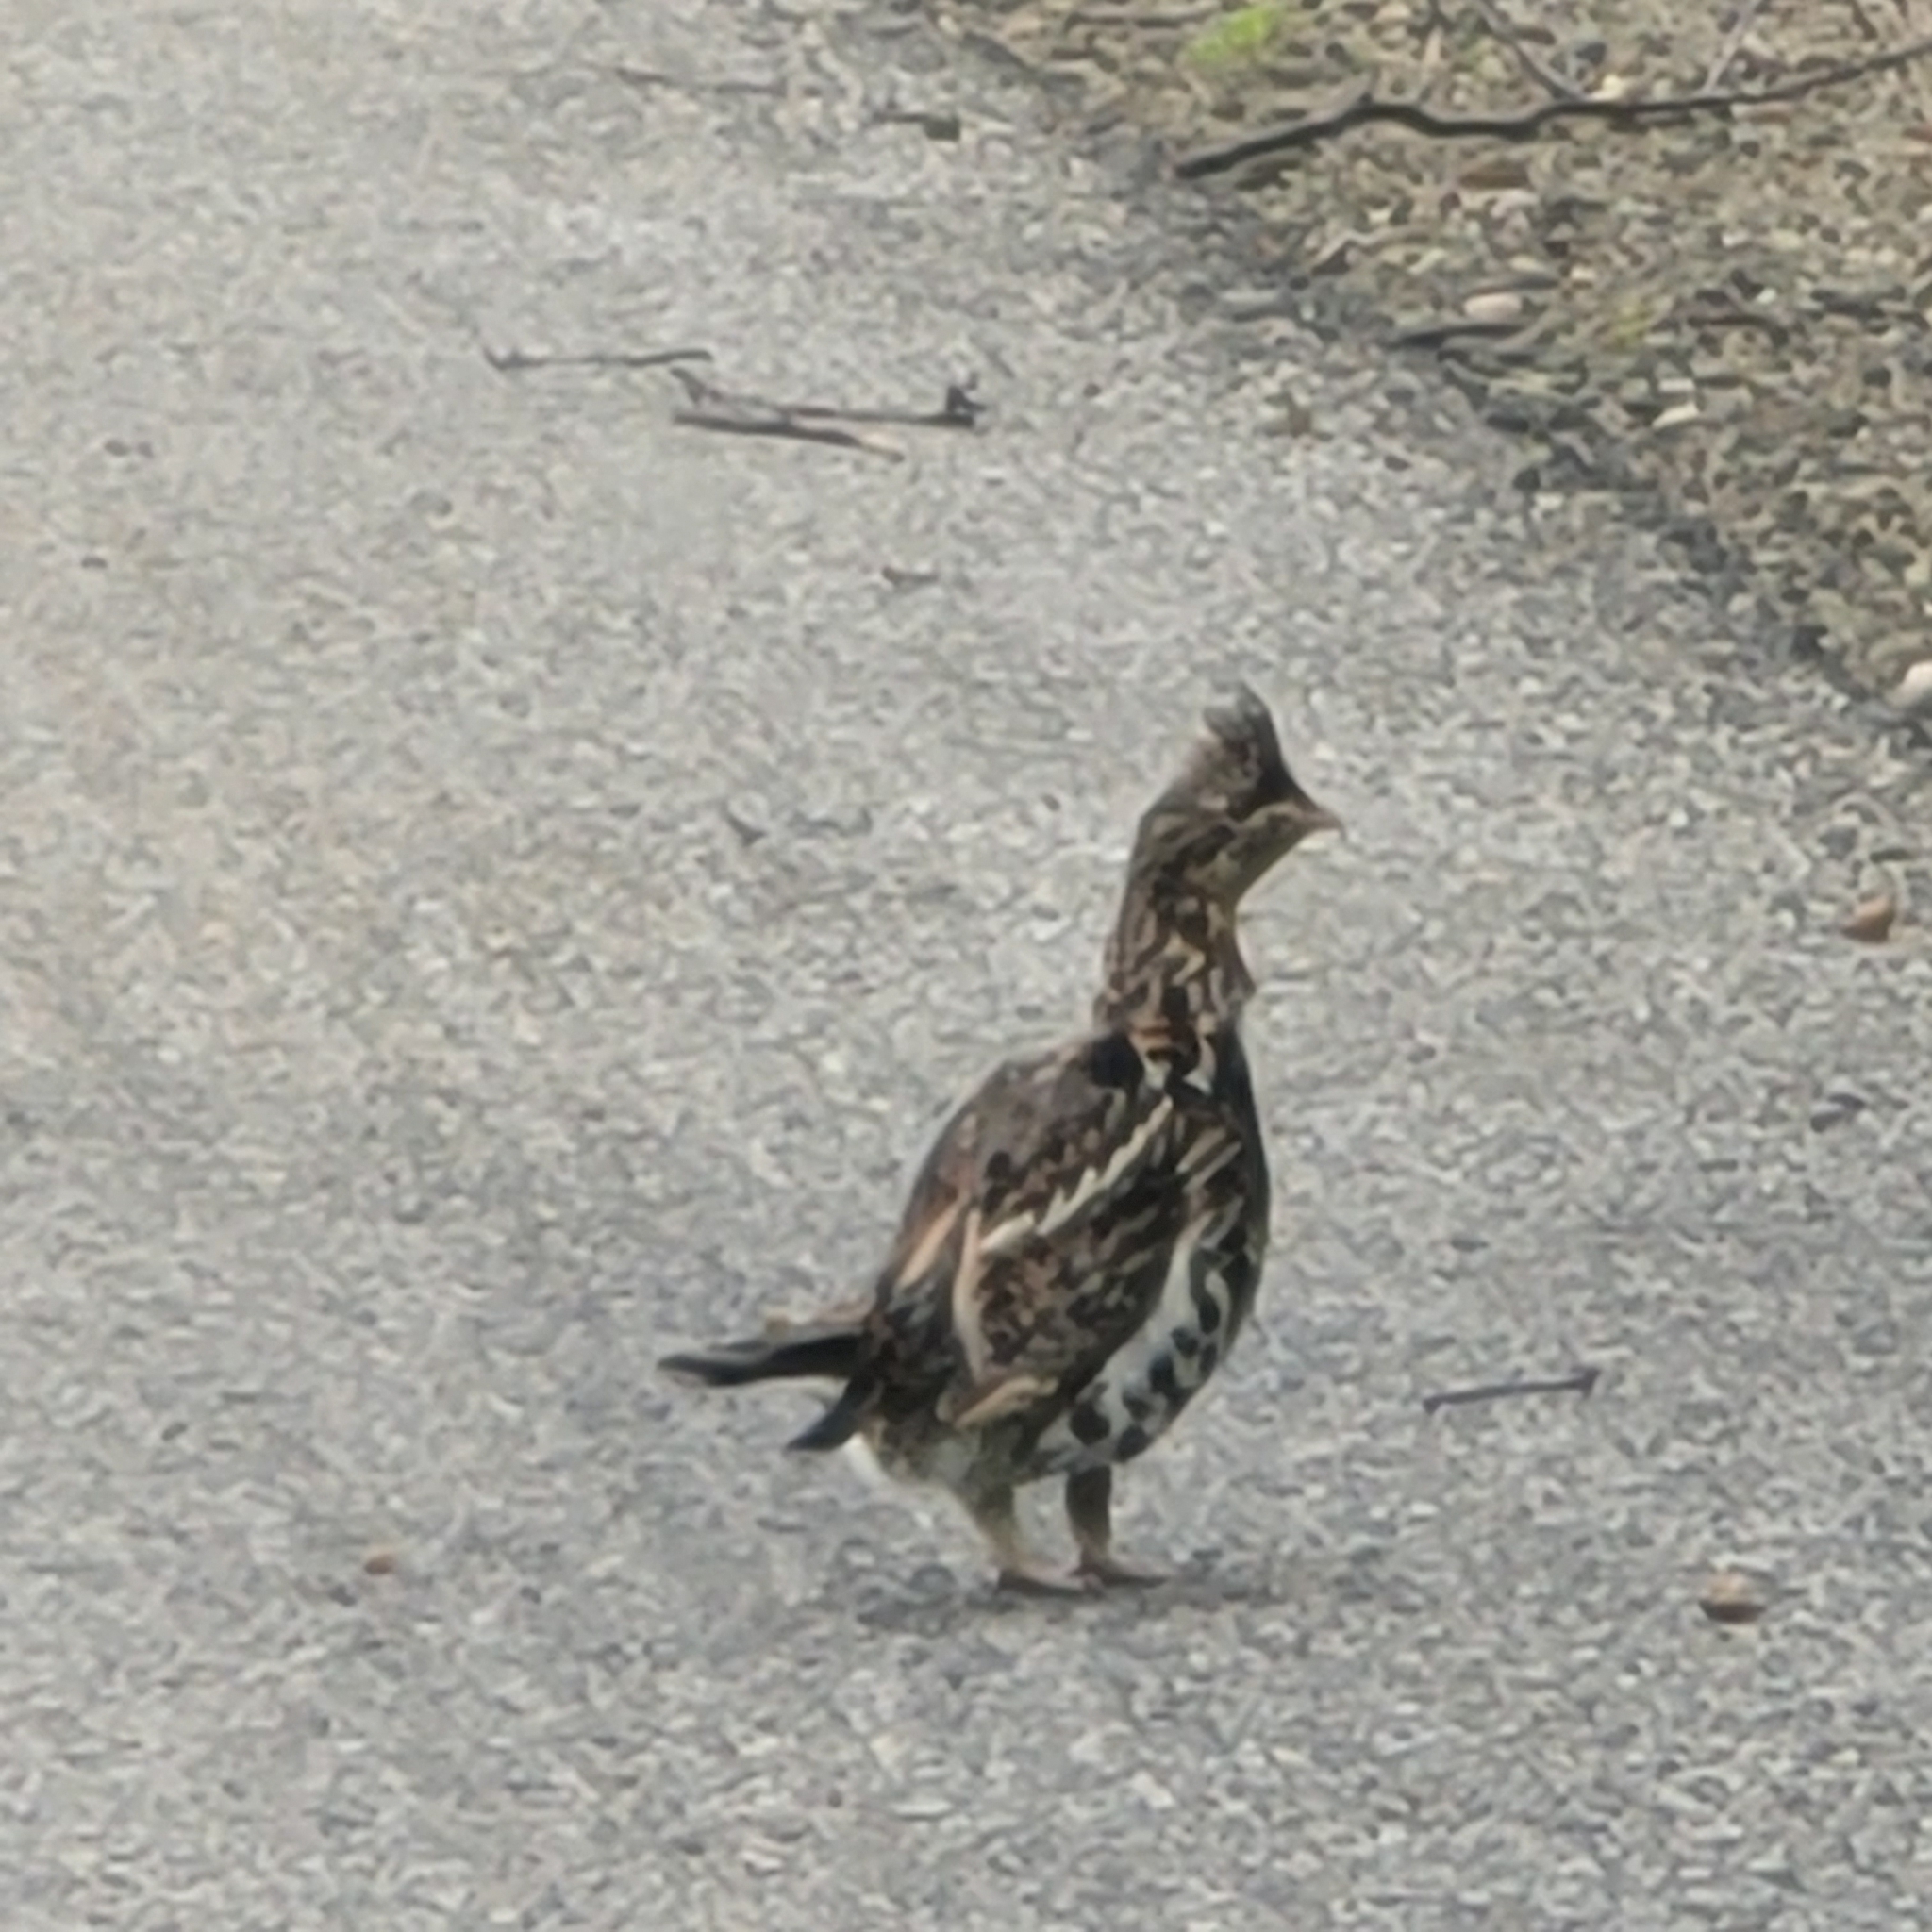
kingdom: Animalia
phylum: Chordata
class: Aves
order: Galliformes
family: Phasianidae
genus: Bonasa
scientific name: Bonasa umbellus
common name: Ruffed grouse
